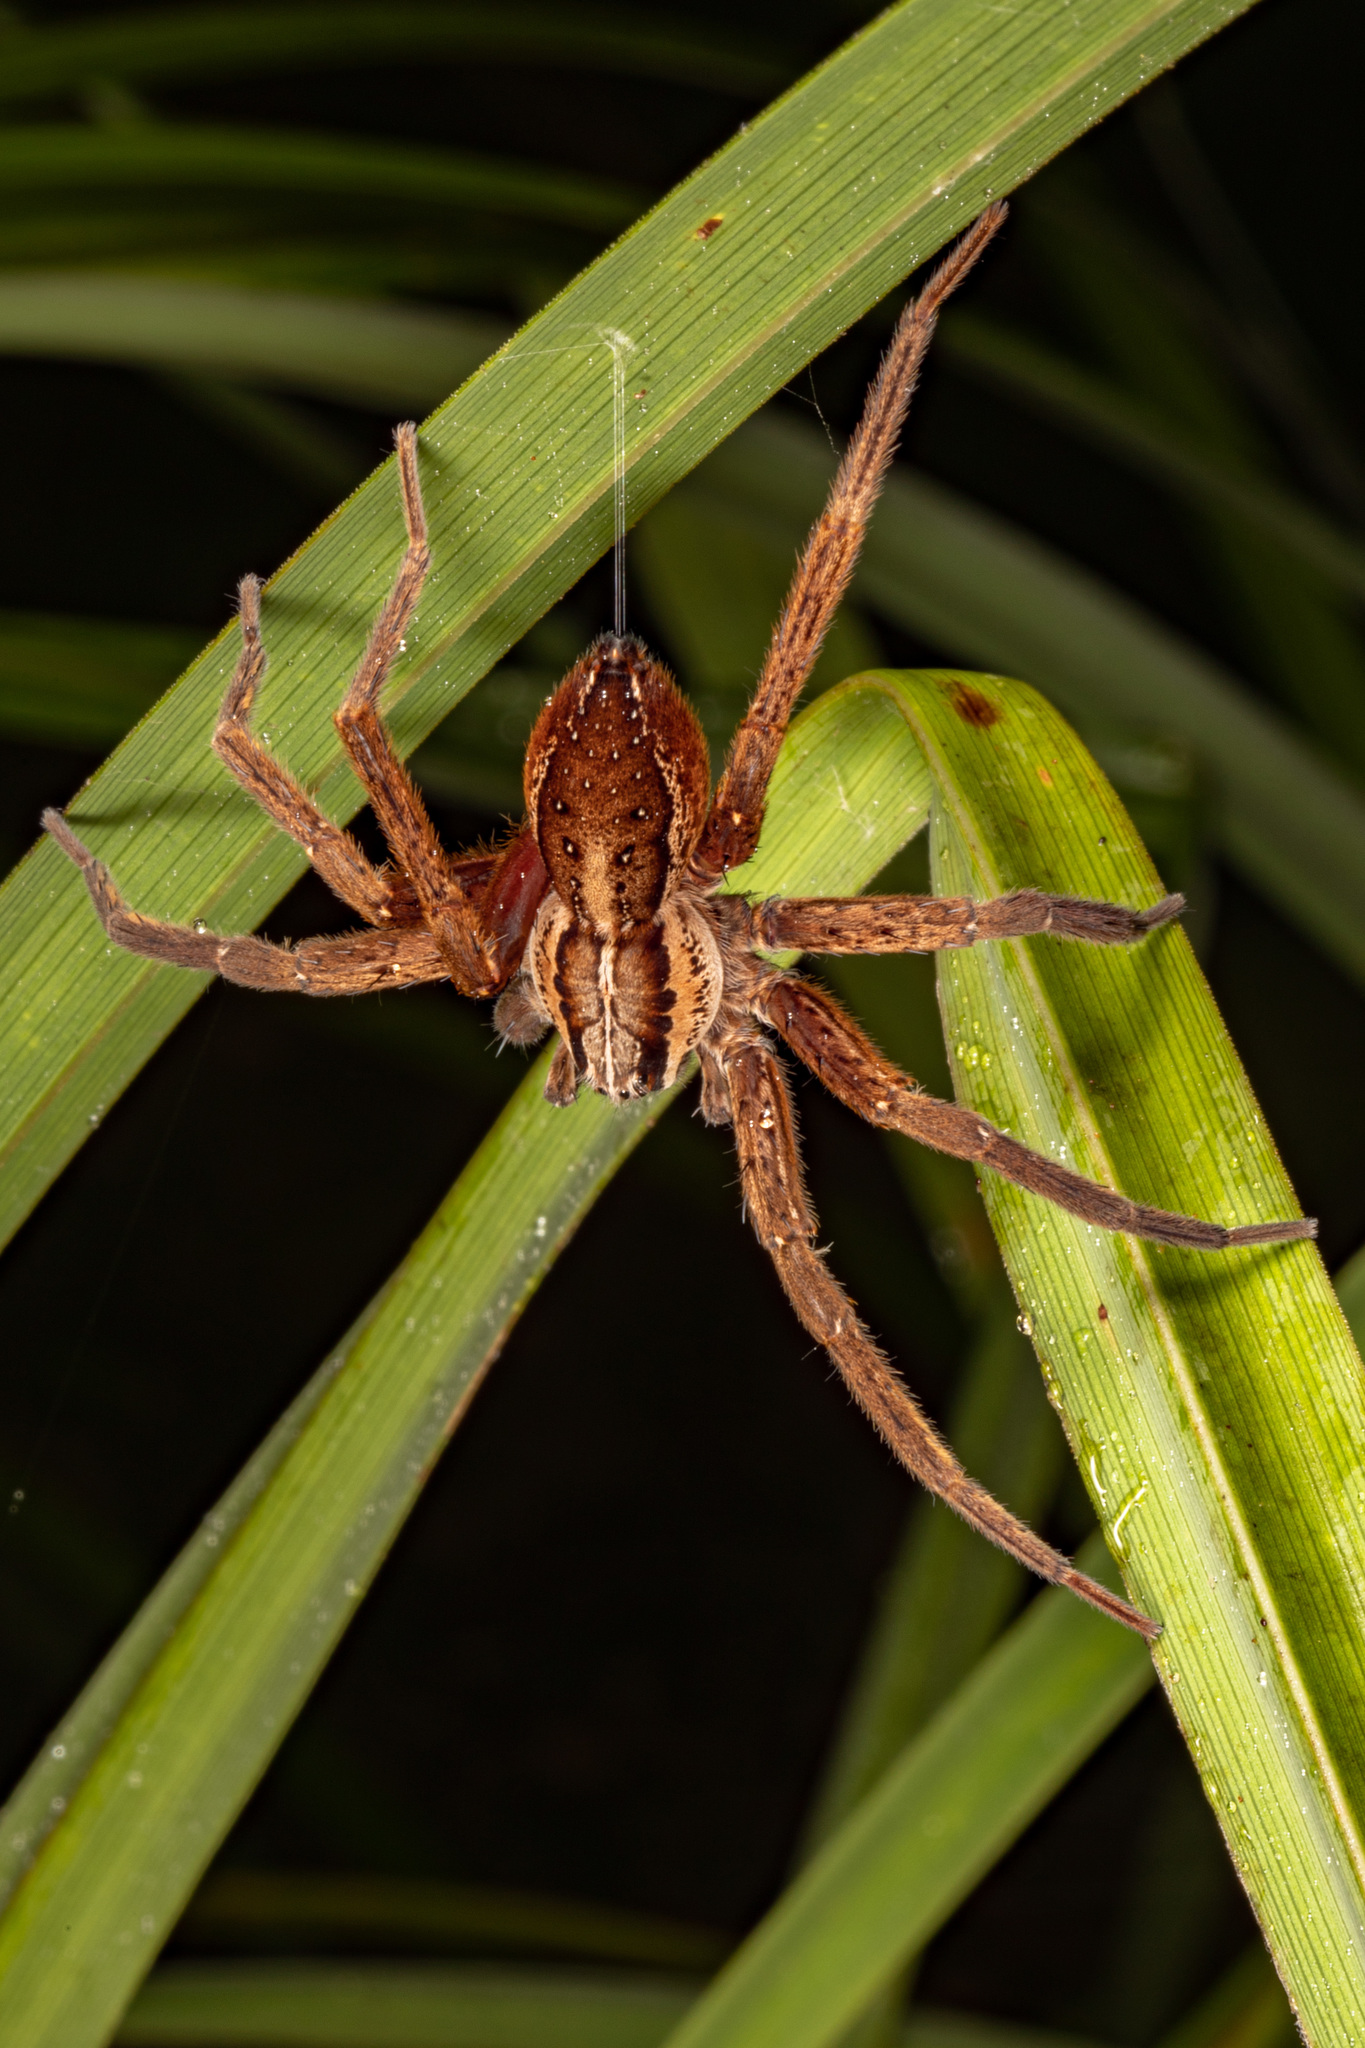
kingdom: Animalia
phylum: Arthropoda
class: Arachnida
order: Araneae
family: Pisauridae
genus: Dolomedes
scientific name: Dolomedes minor
